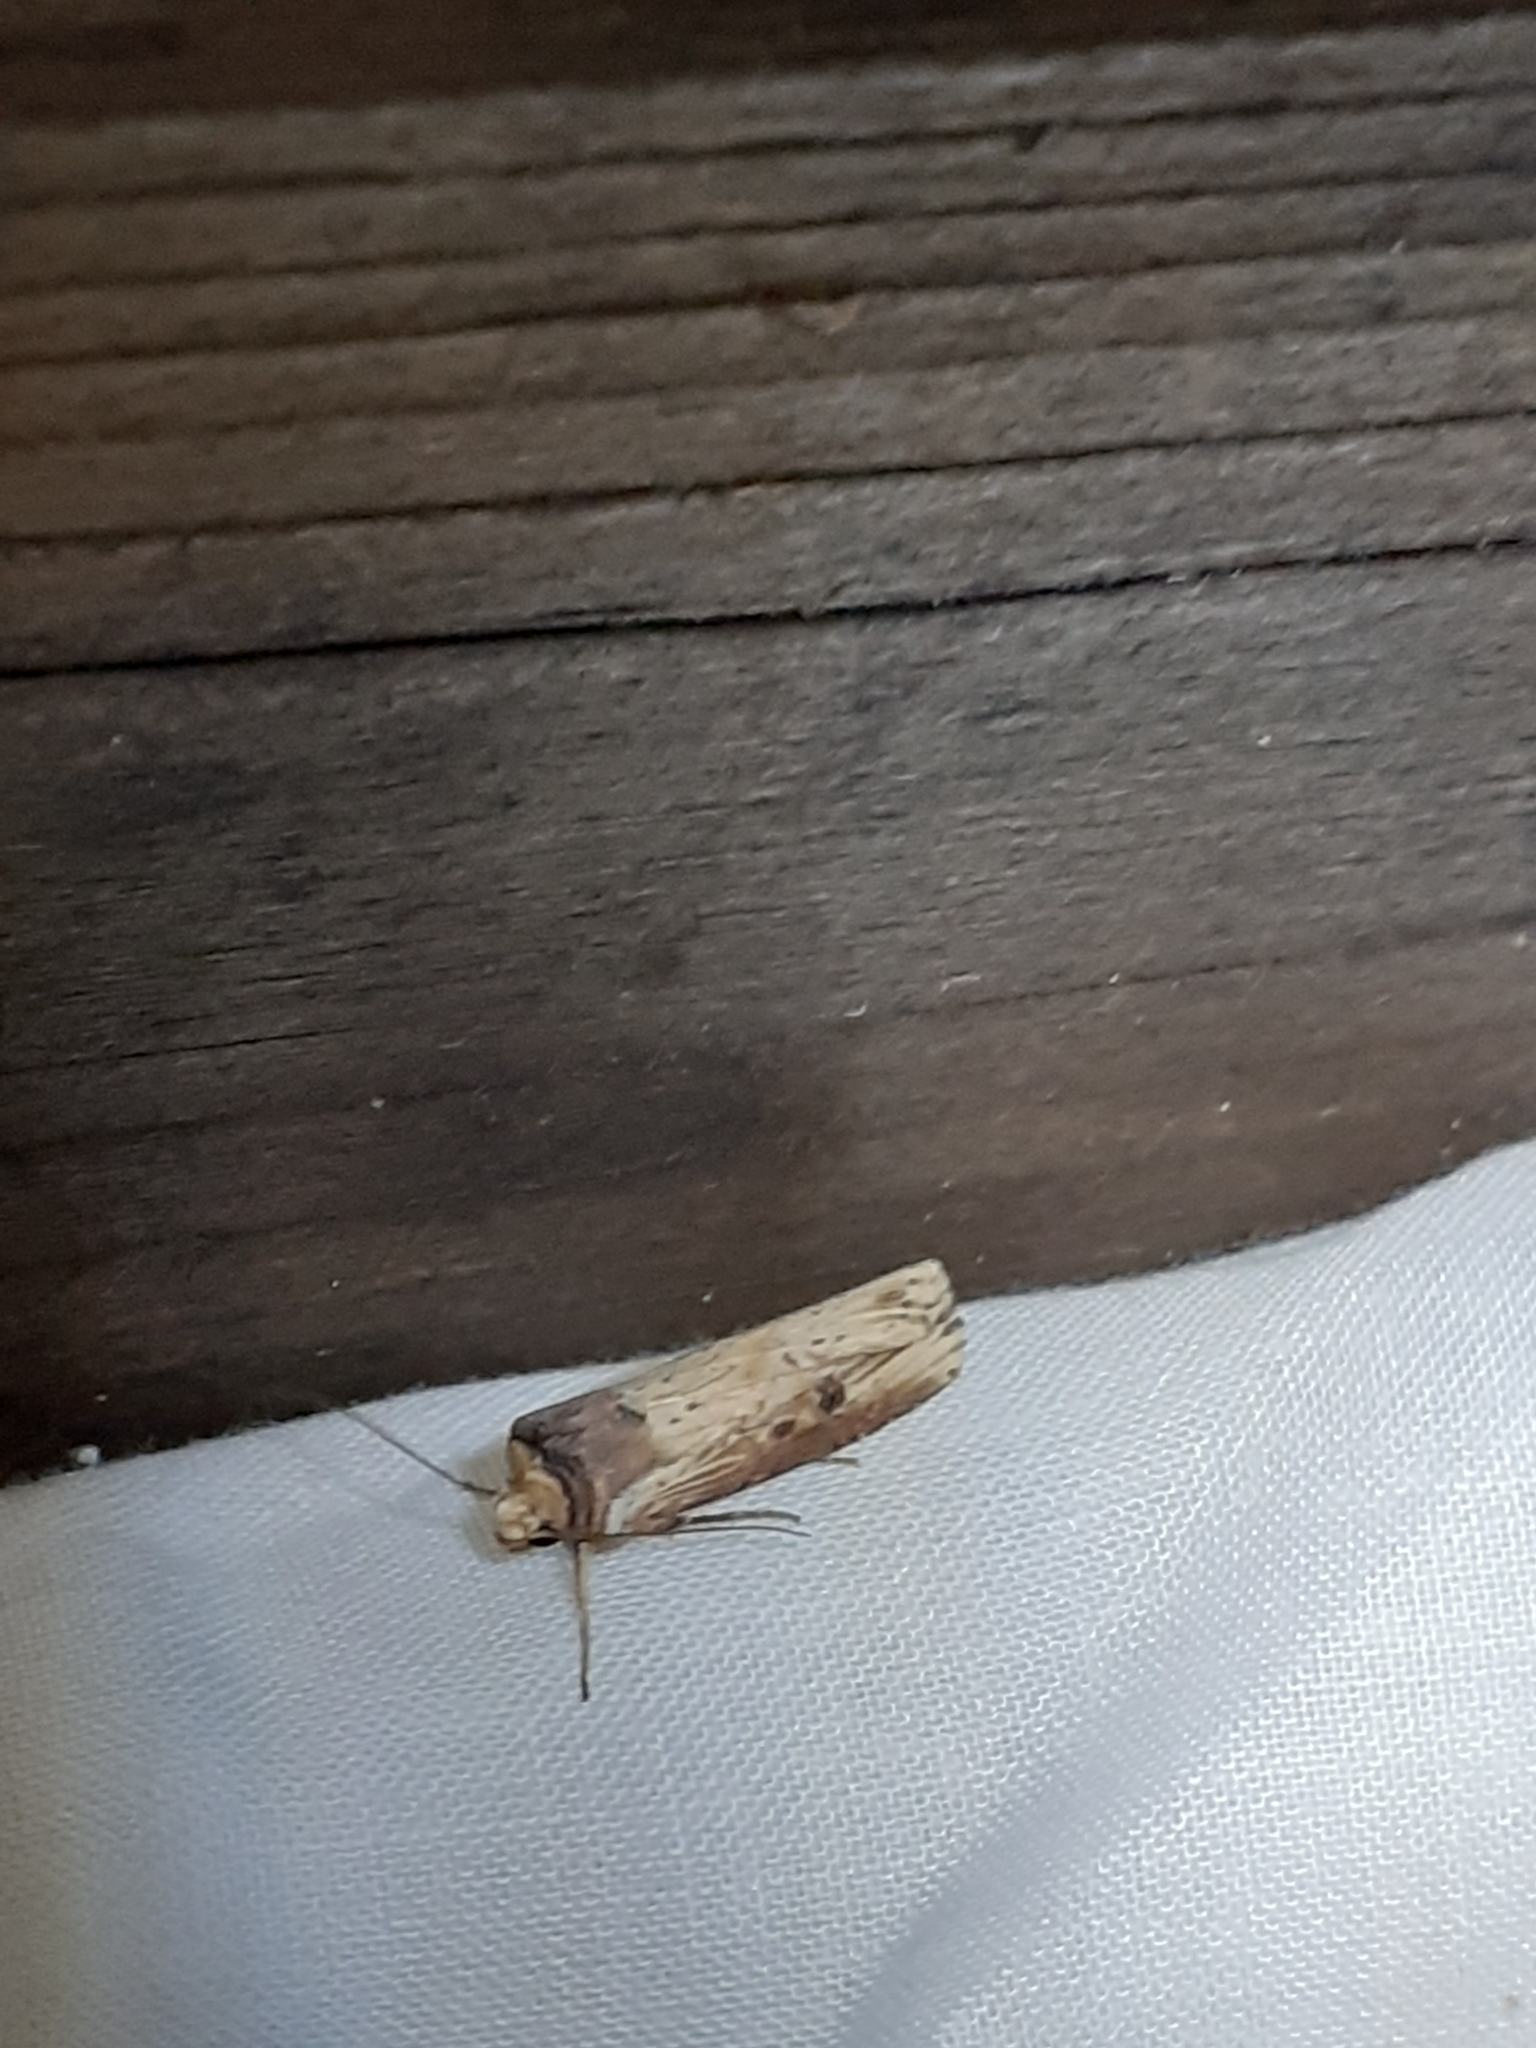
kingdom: Animalia
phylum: Arthropoda
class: Insecta
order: Lepidoptera
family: Noctuidae
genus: Axylia
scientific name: Axylia putris
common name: Flame
